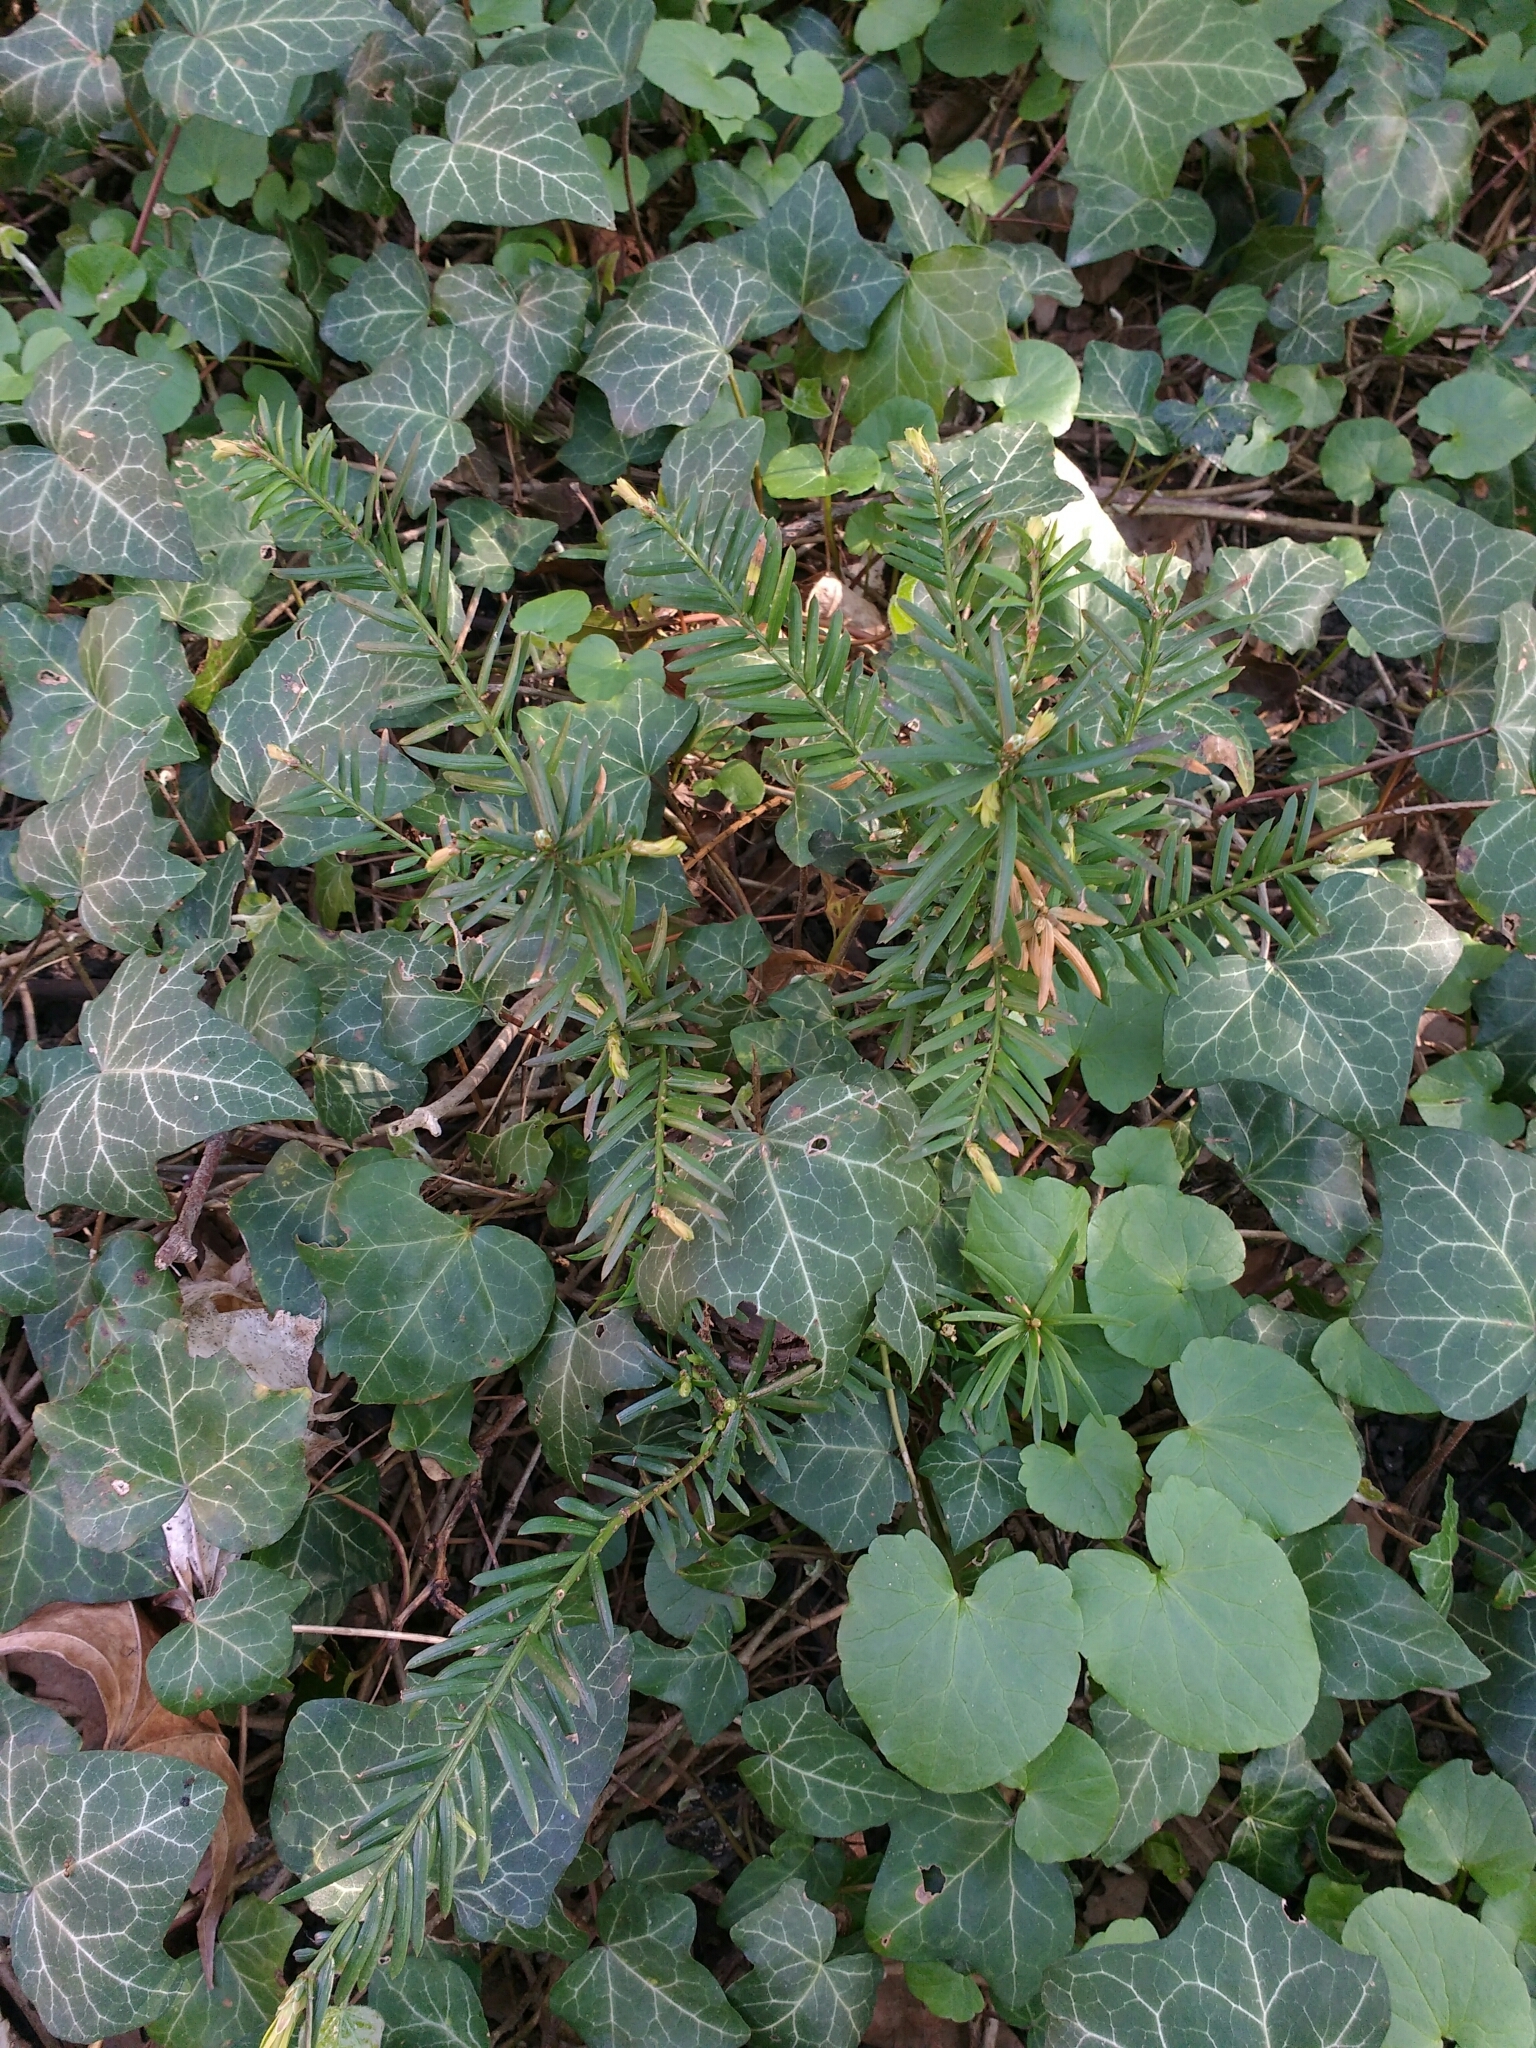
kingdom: Plantae
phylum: Tracheophyta
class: Pinopsida
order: Pinales
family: Taxaceae
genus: Taxus
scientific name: Taxus baccata
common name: Yew
